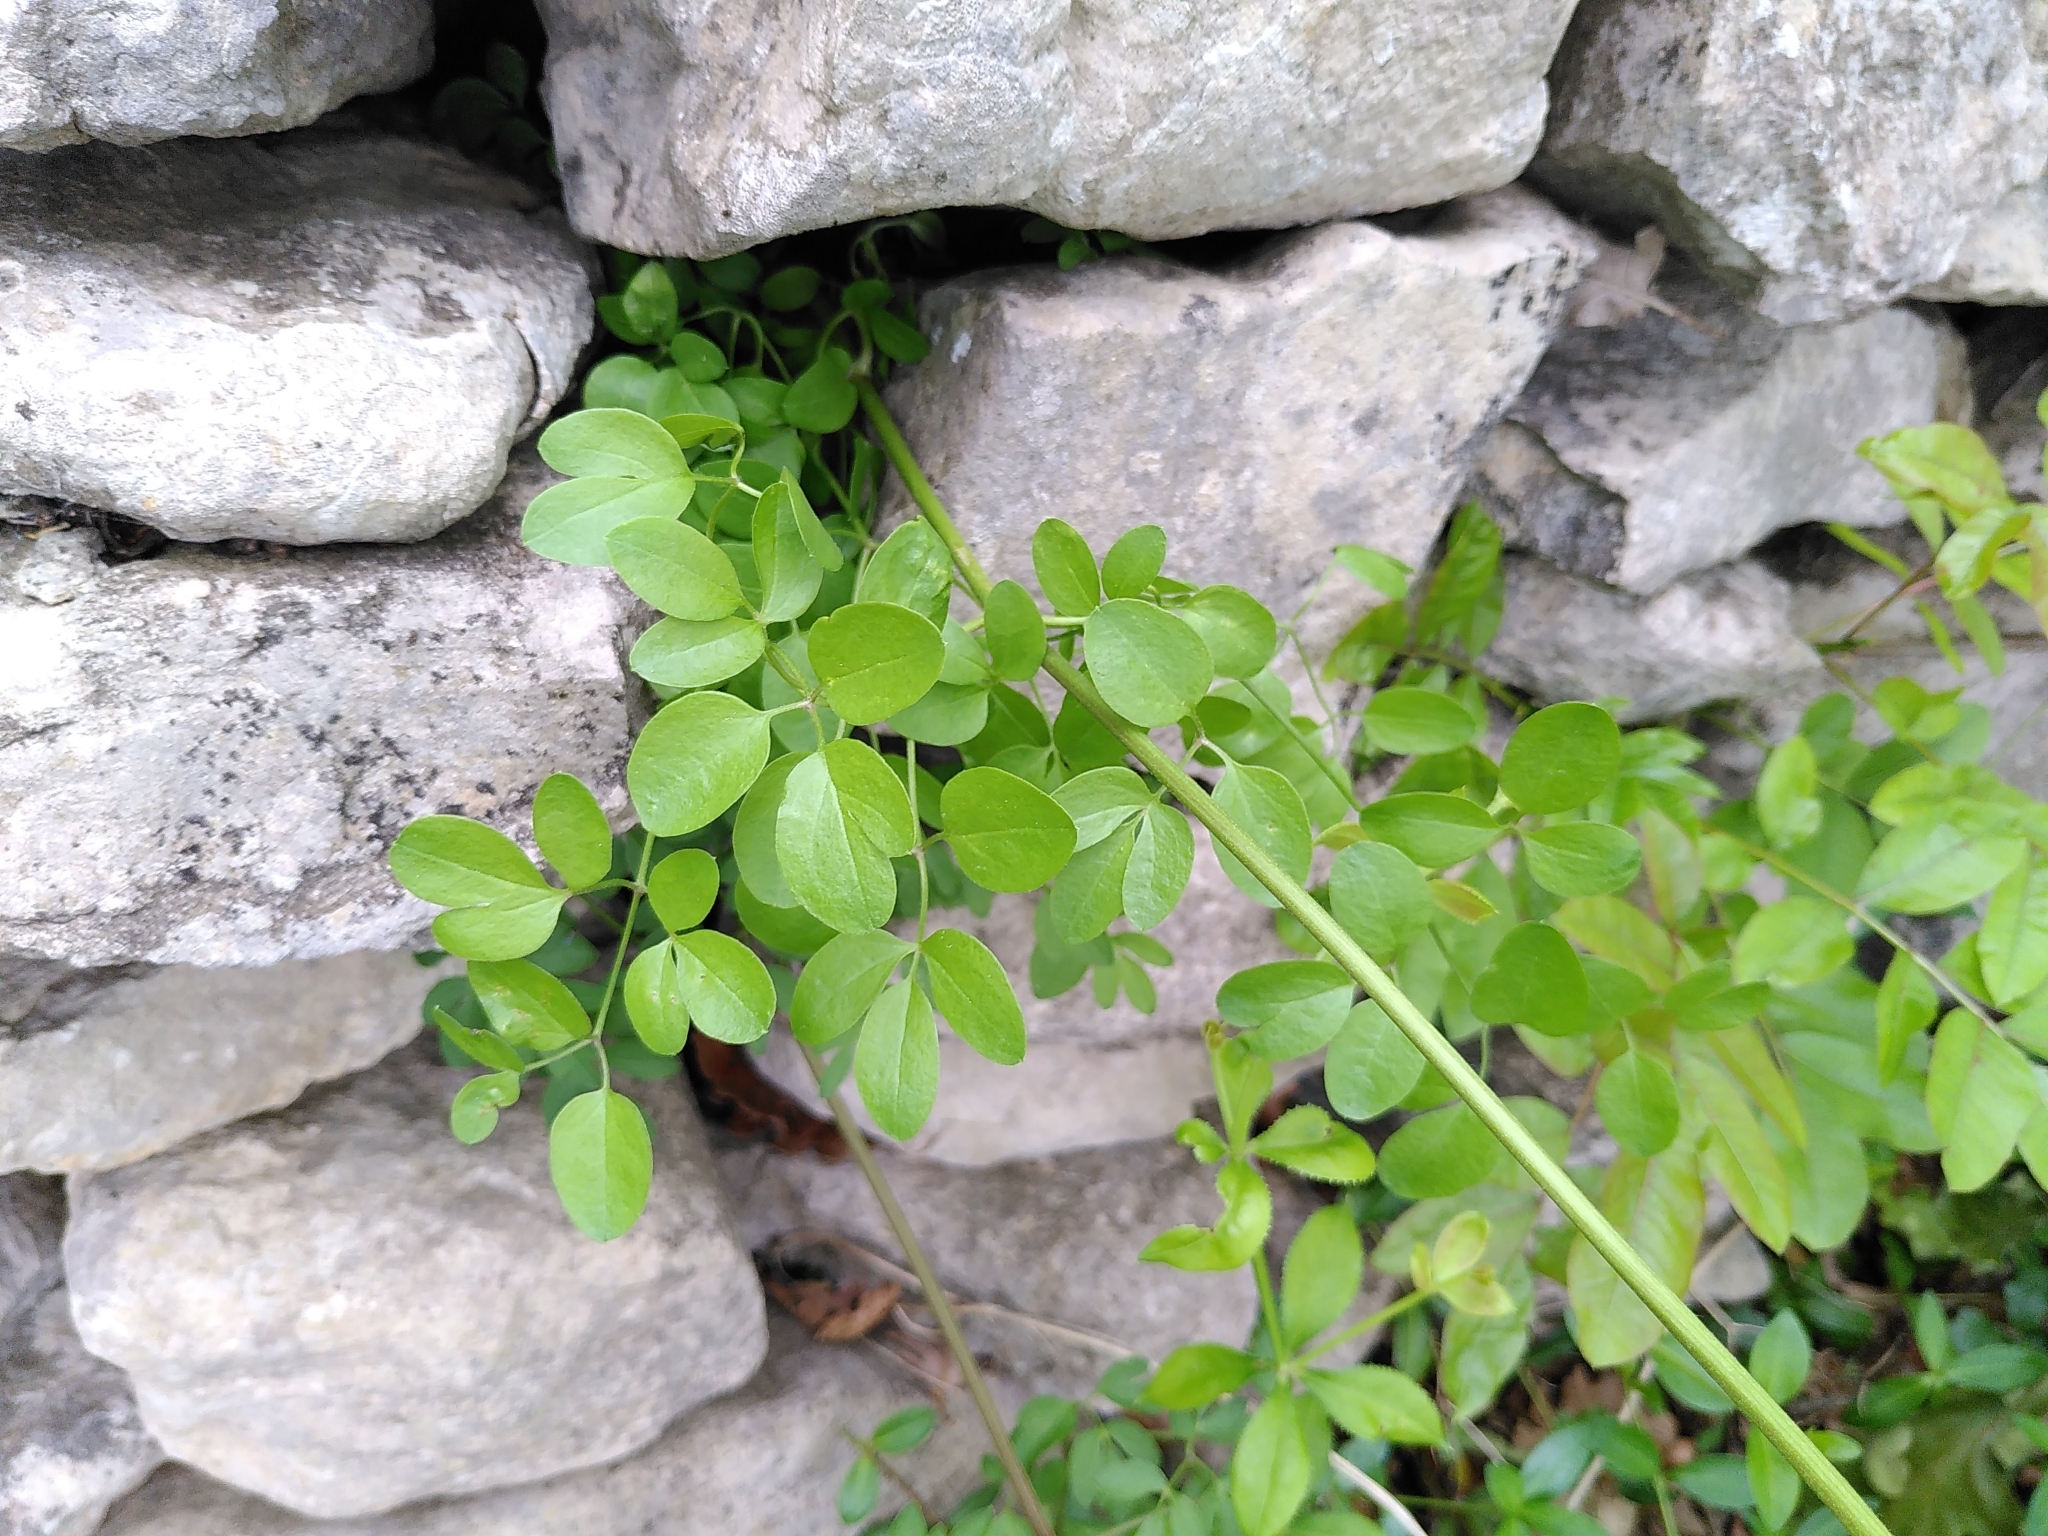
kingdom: Plantae
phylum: Tracheophyta
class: Magnoliopsida
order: Ranunculales
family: Ranunculaceae
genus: Clematis
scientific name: Clematis flammula
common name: Virgin's-bower
